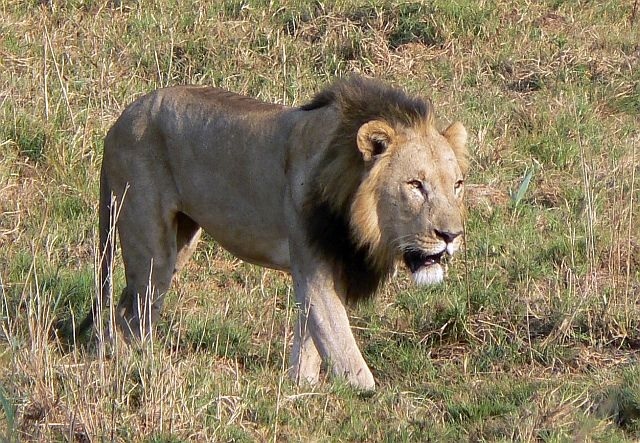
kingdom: Animalia
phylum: Chordata
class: Mammalia
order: Carnivora
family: Felidae
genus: Panthera
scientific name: Panthera leo
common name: Lion
